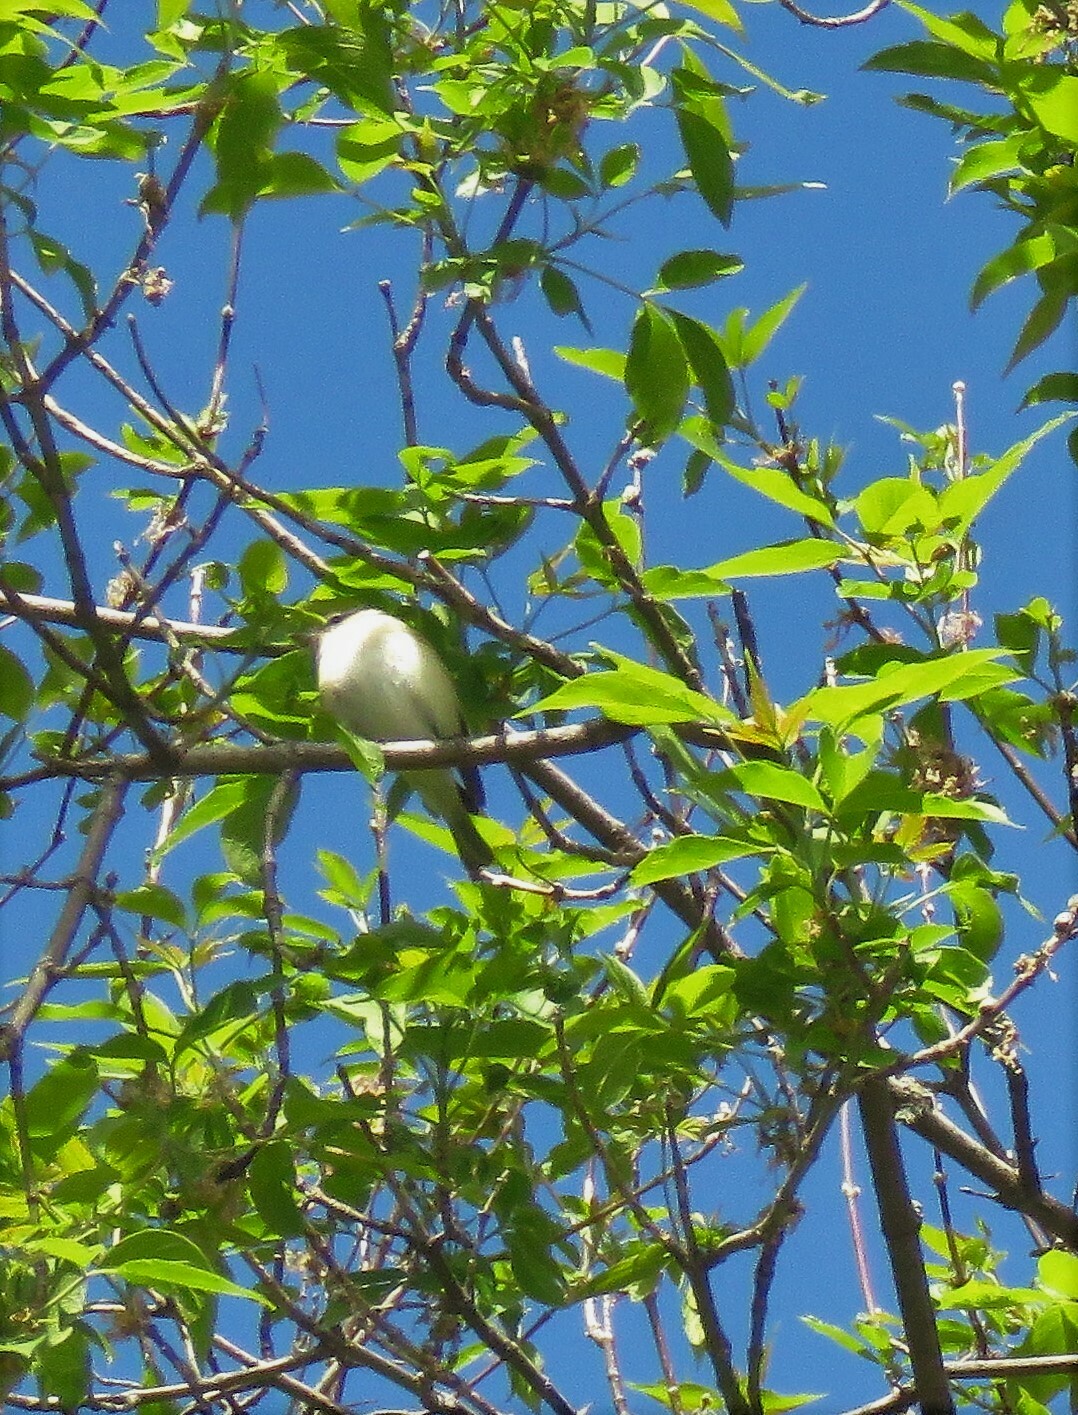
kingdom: Animalia
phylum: Chordata
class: Aves
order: Passeriformes
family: Vireonidae
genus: Vireo
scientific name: Vireo gilvus
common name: Warbling vireo
